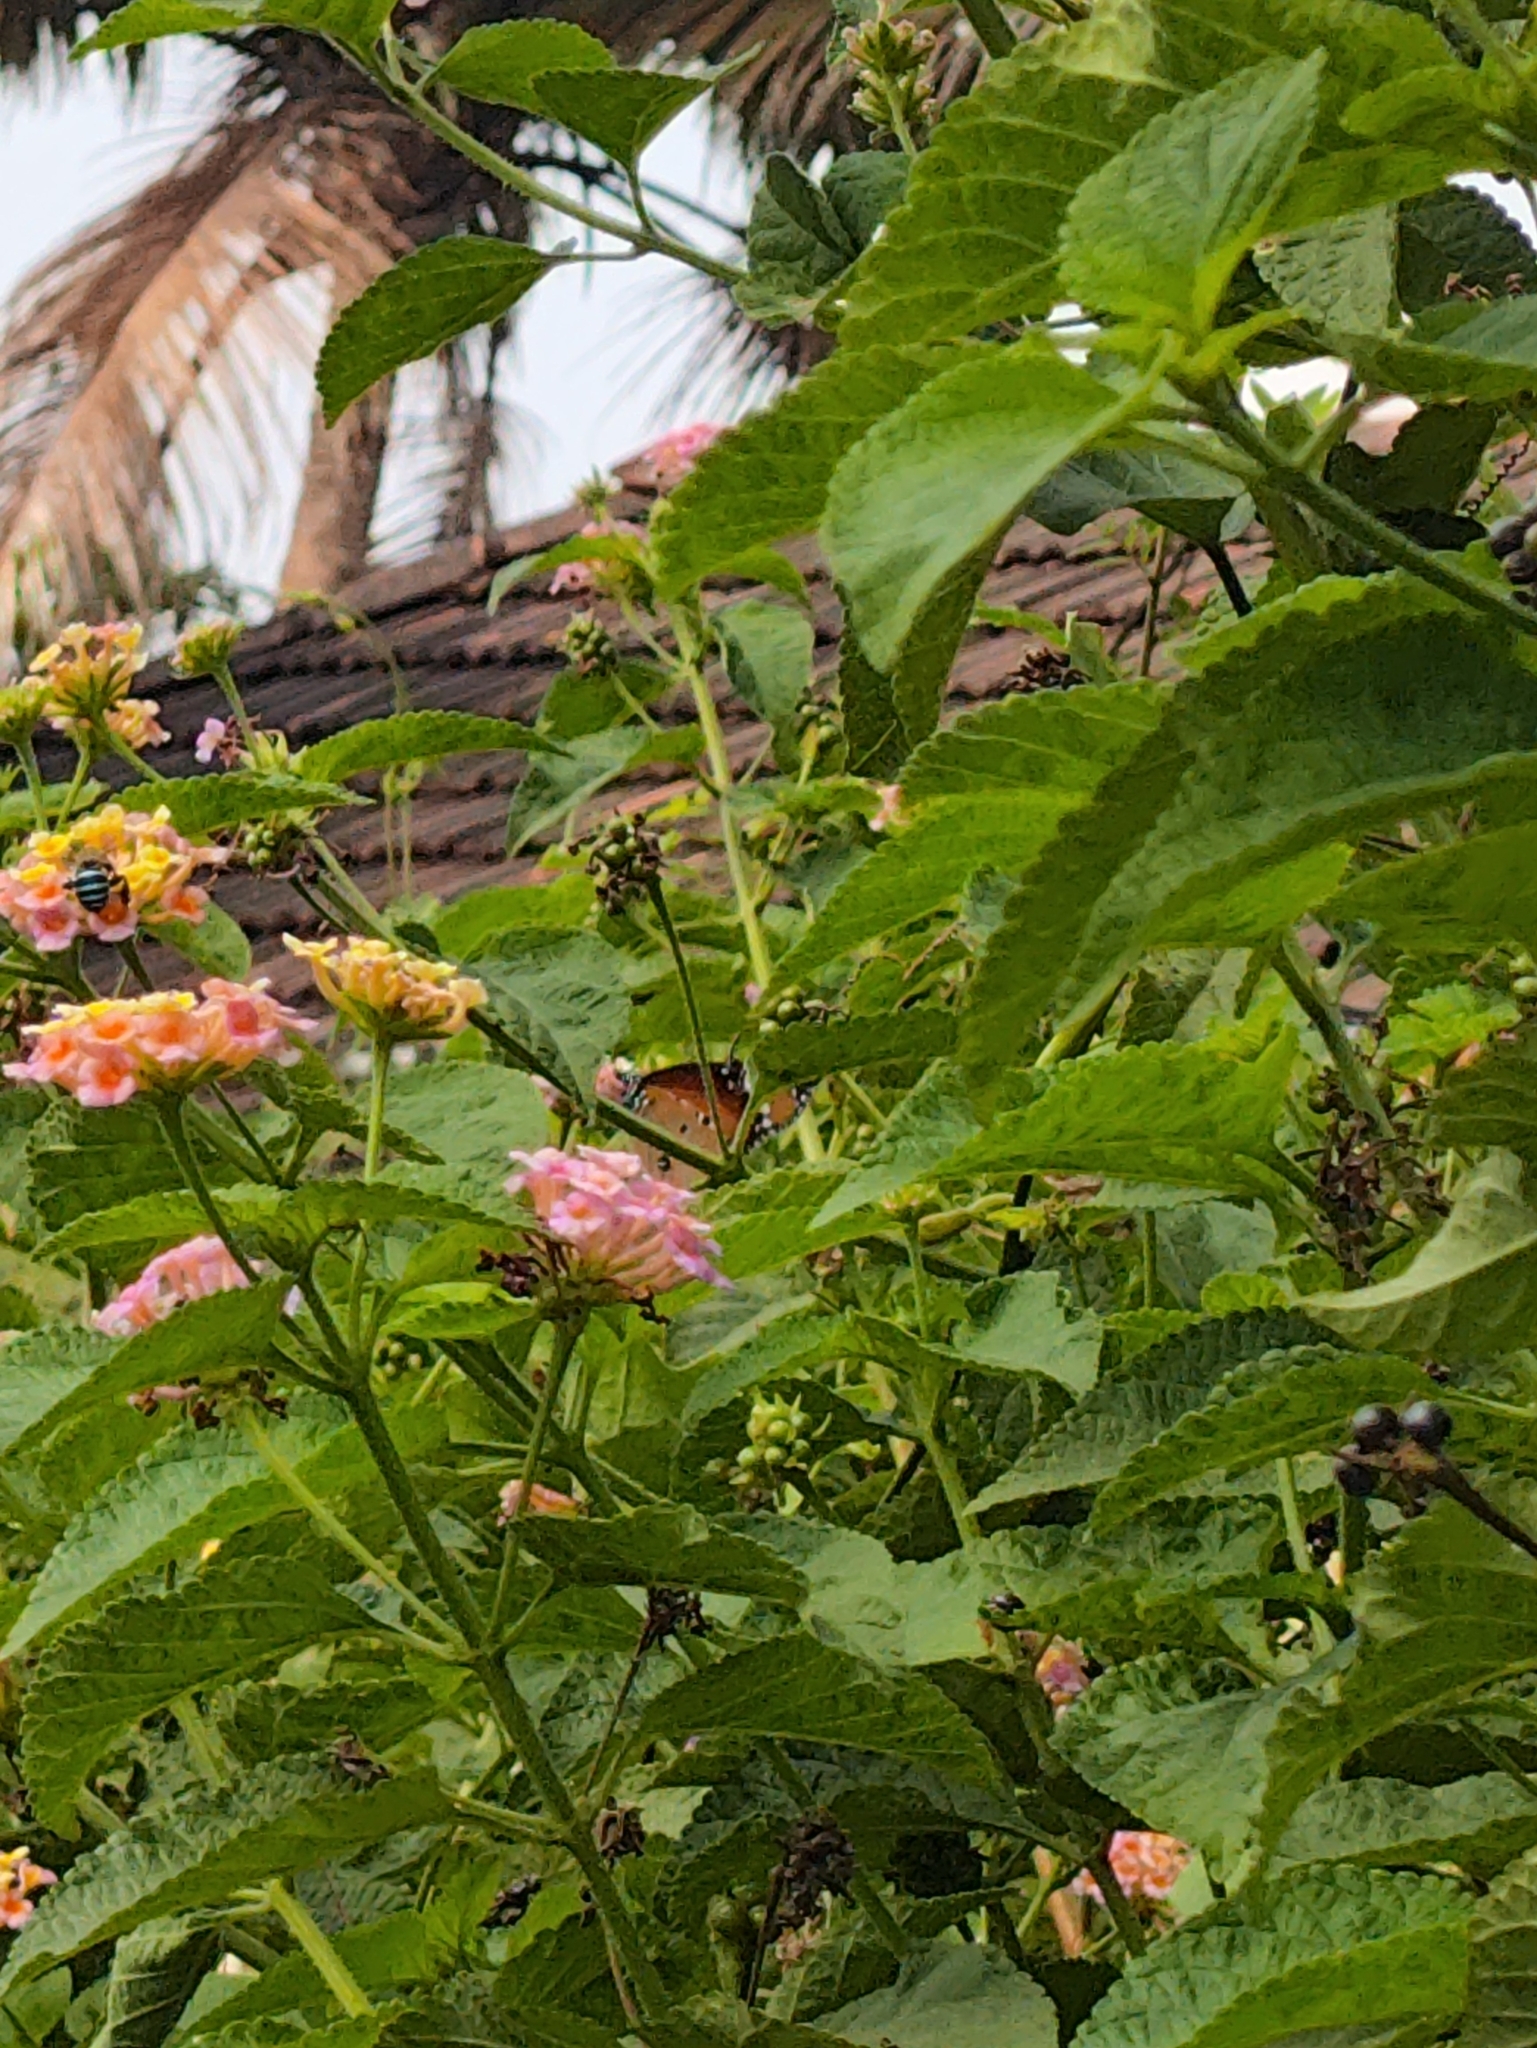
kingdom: Plantae
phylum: Tracheophyta
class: Magnoliopsida
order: Lamiales
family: Verbenaceae
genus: Lantana
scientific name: Lantana camara
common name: Lantana
